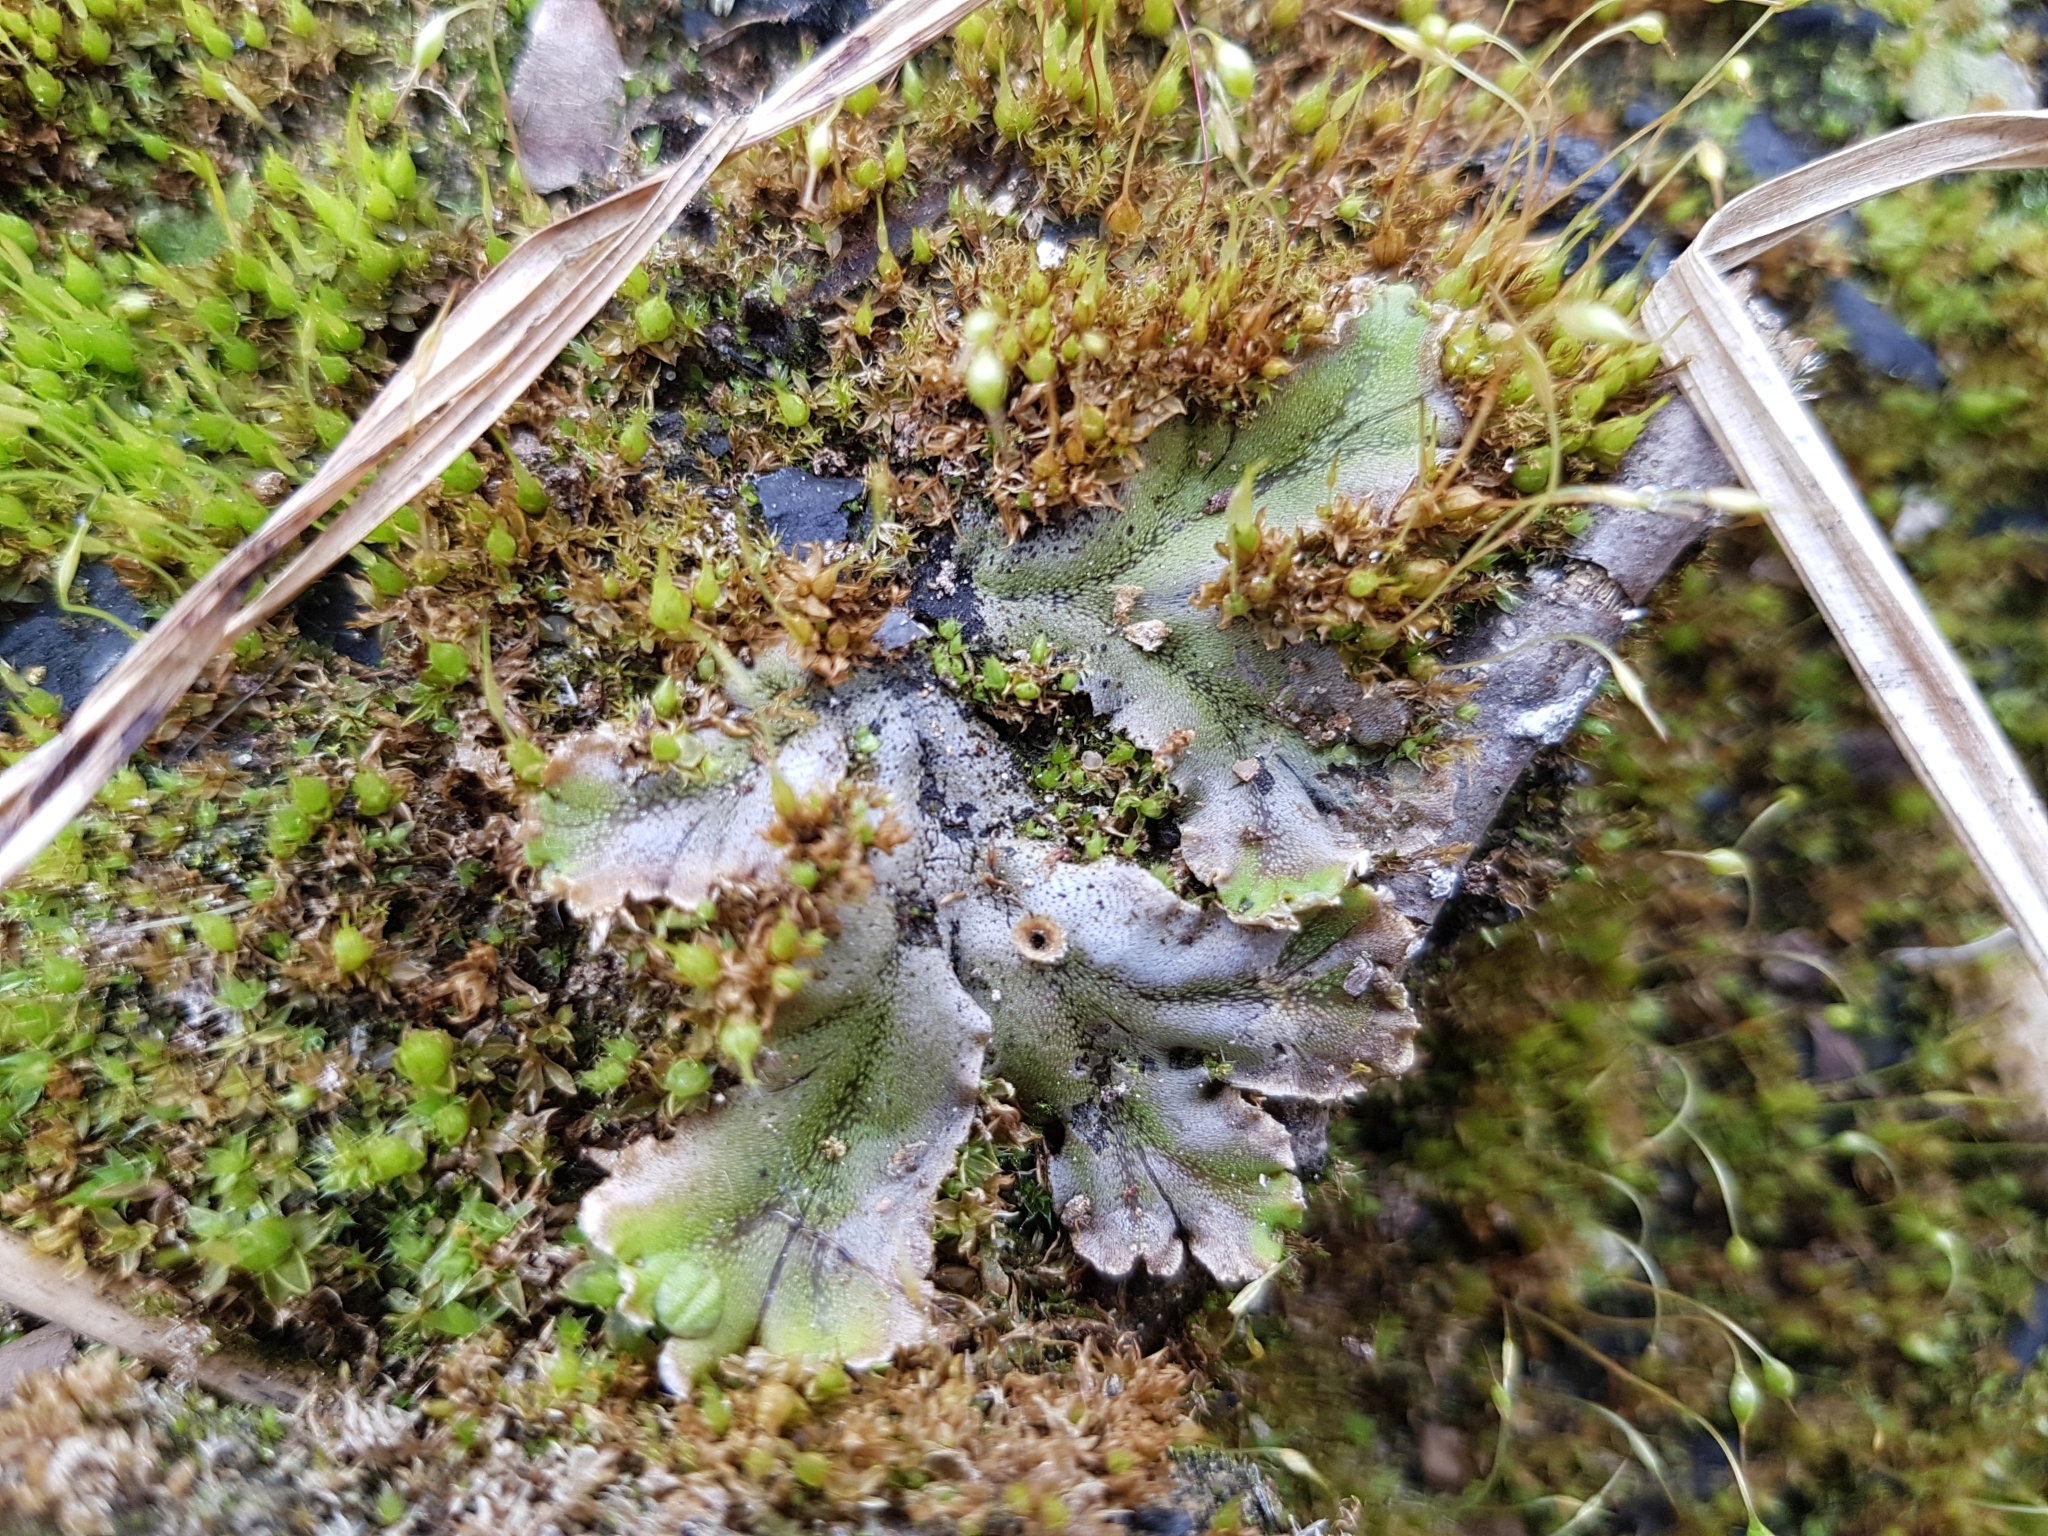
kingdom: Plantae
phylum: Marchantiophyta
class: Marchantiopsida
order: Marchantiales
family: Marchantiaceae
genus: Marchantia
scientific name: Marchantia polymorpha
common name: Common liverwort
